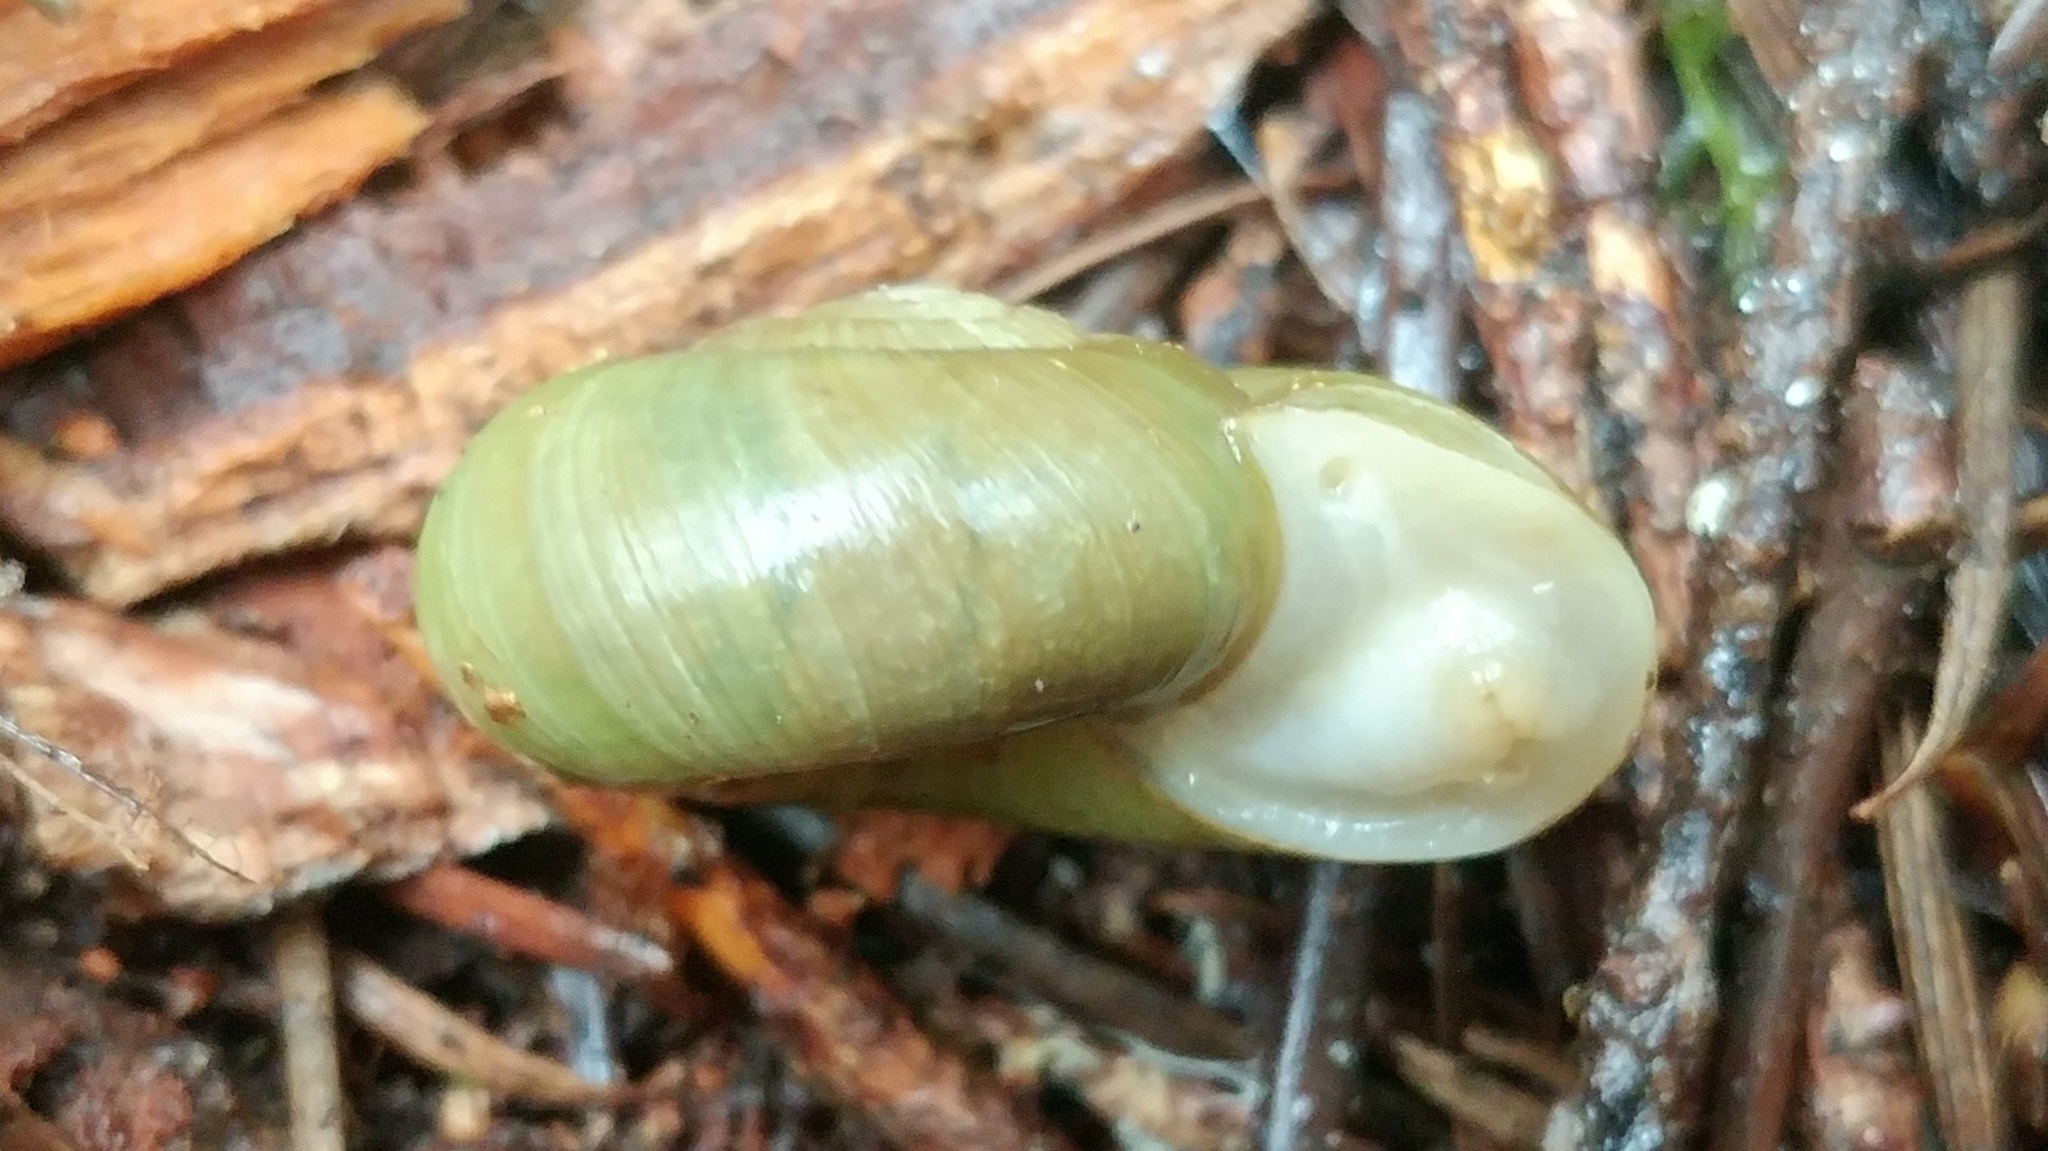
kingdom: Animalia
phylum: Mollusca
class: Gastropoda
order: Stylommatophora
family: Haplotrematidae
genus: Haplotrema
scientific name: Haplotrema vancouverense
